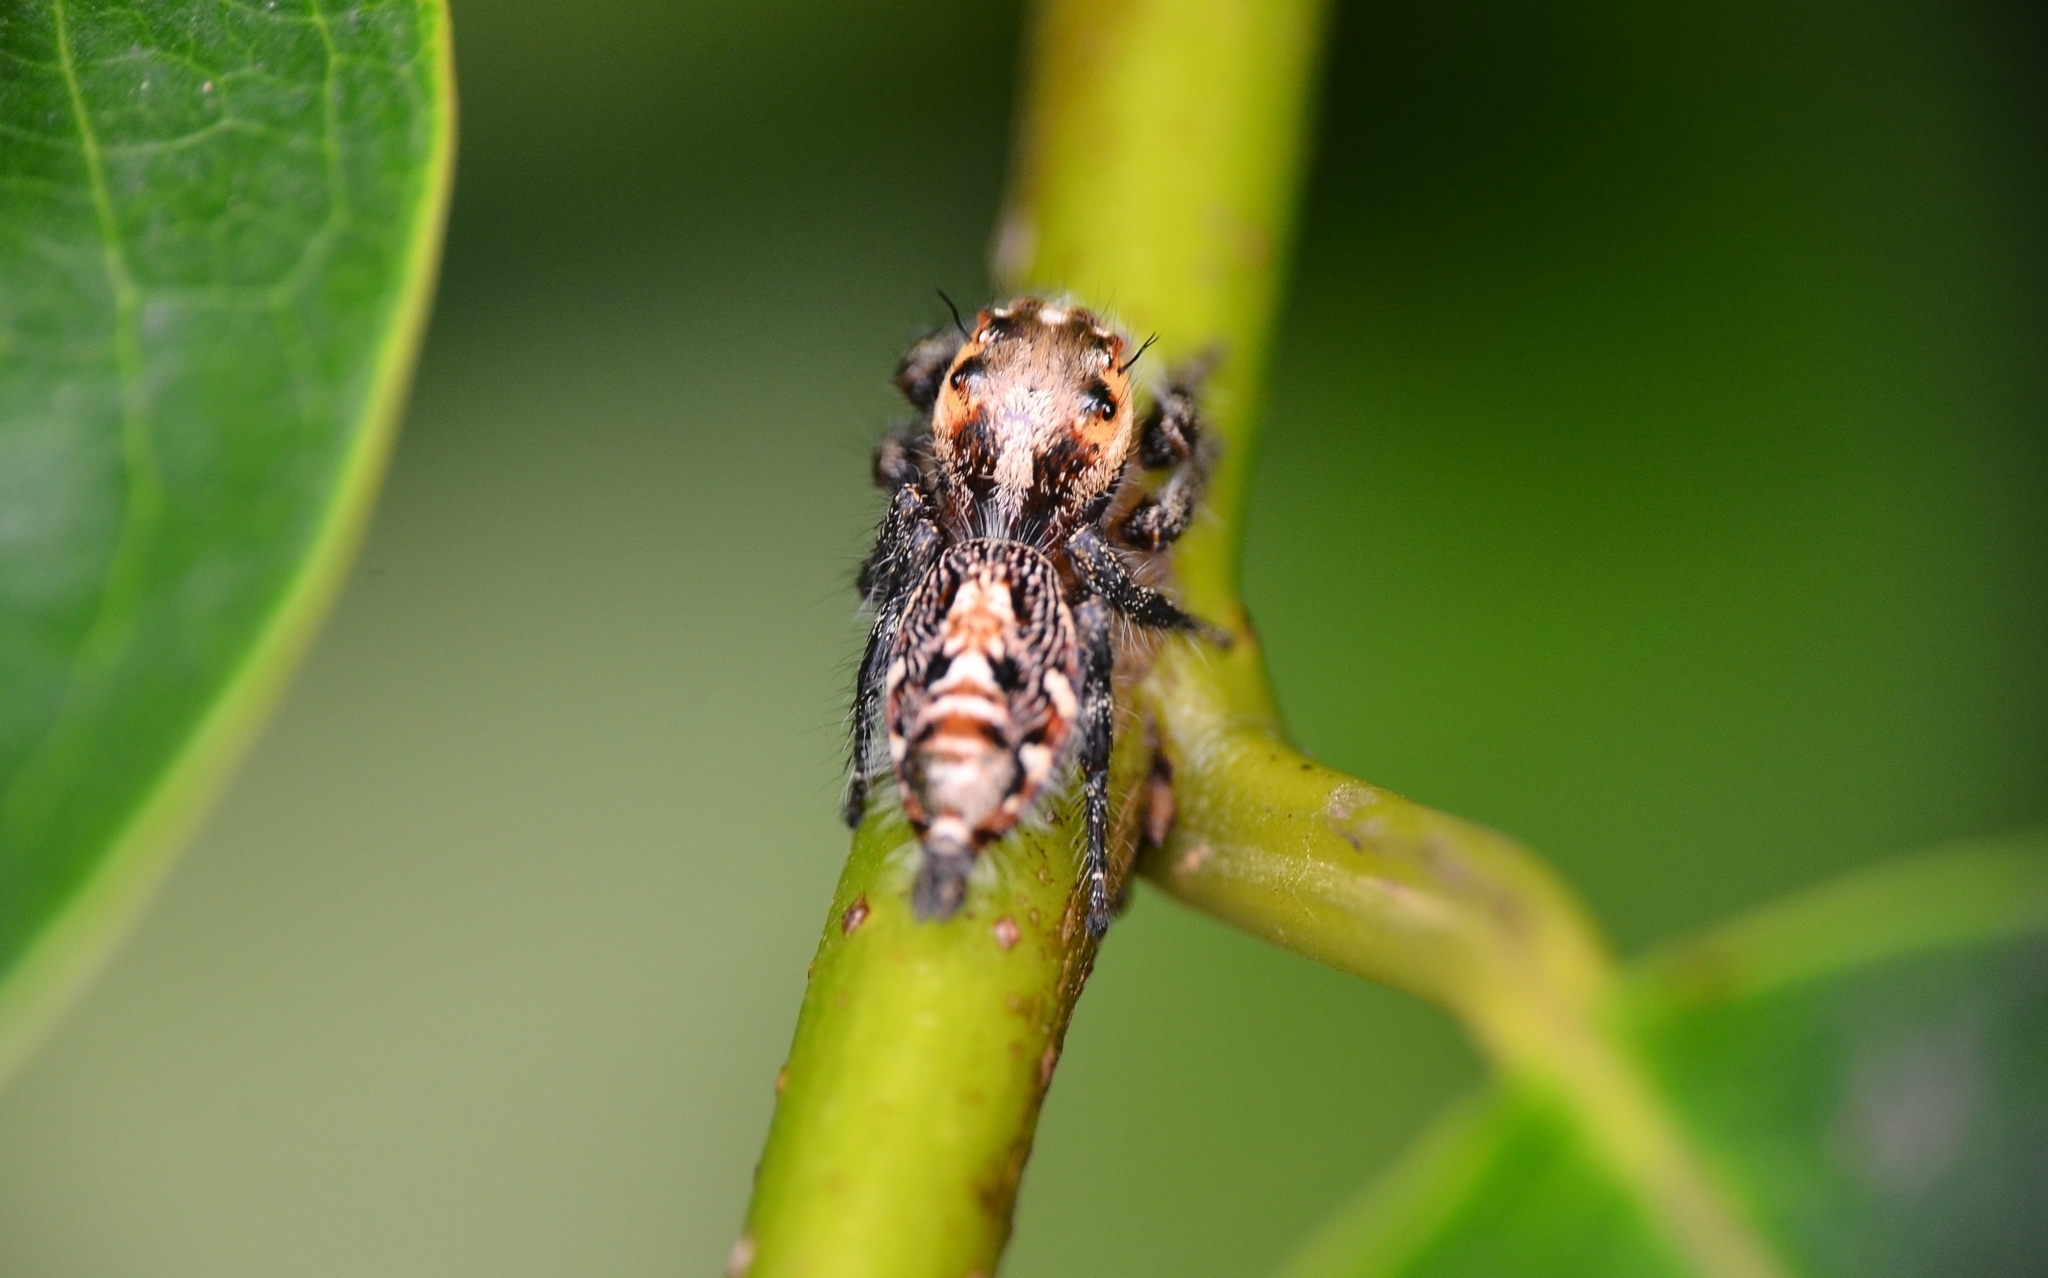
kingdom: Animalia
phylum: Arthropoda
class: Arachnida
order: Araneae
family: Salticidae
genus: Hyllus
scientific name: Hyllus semicupreus
